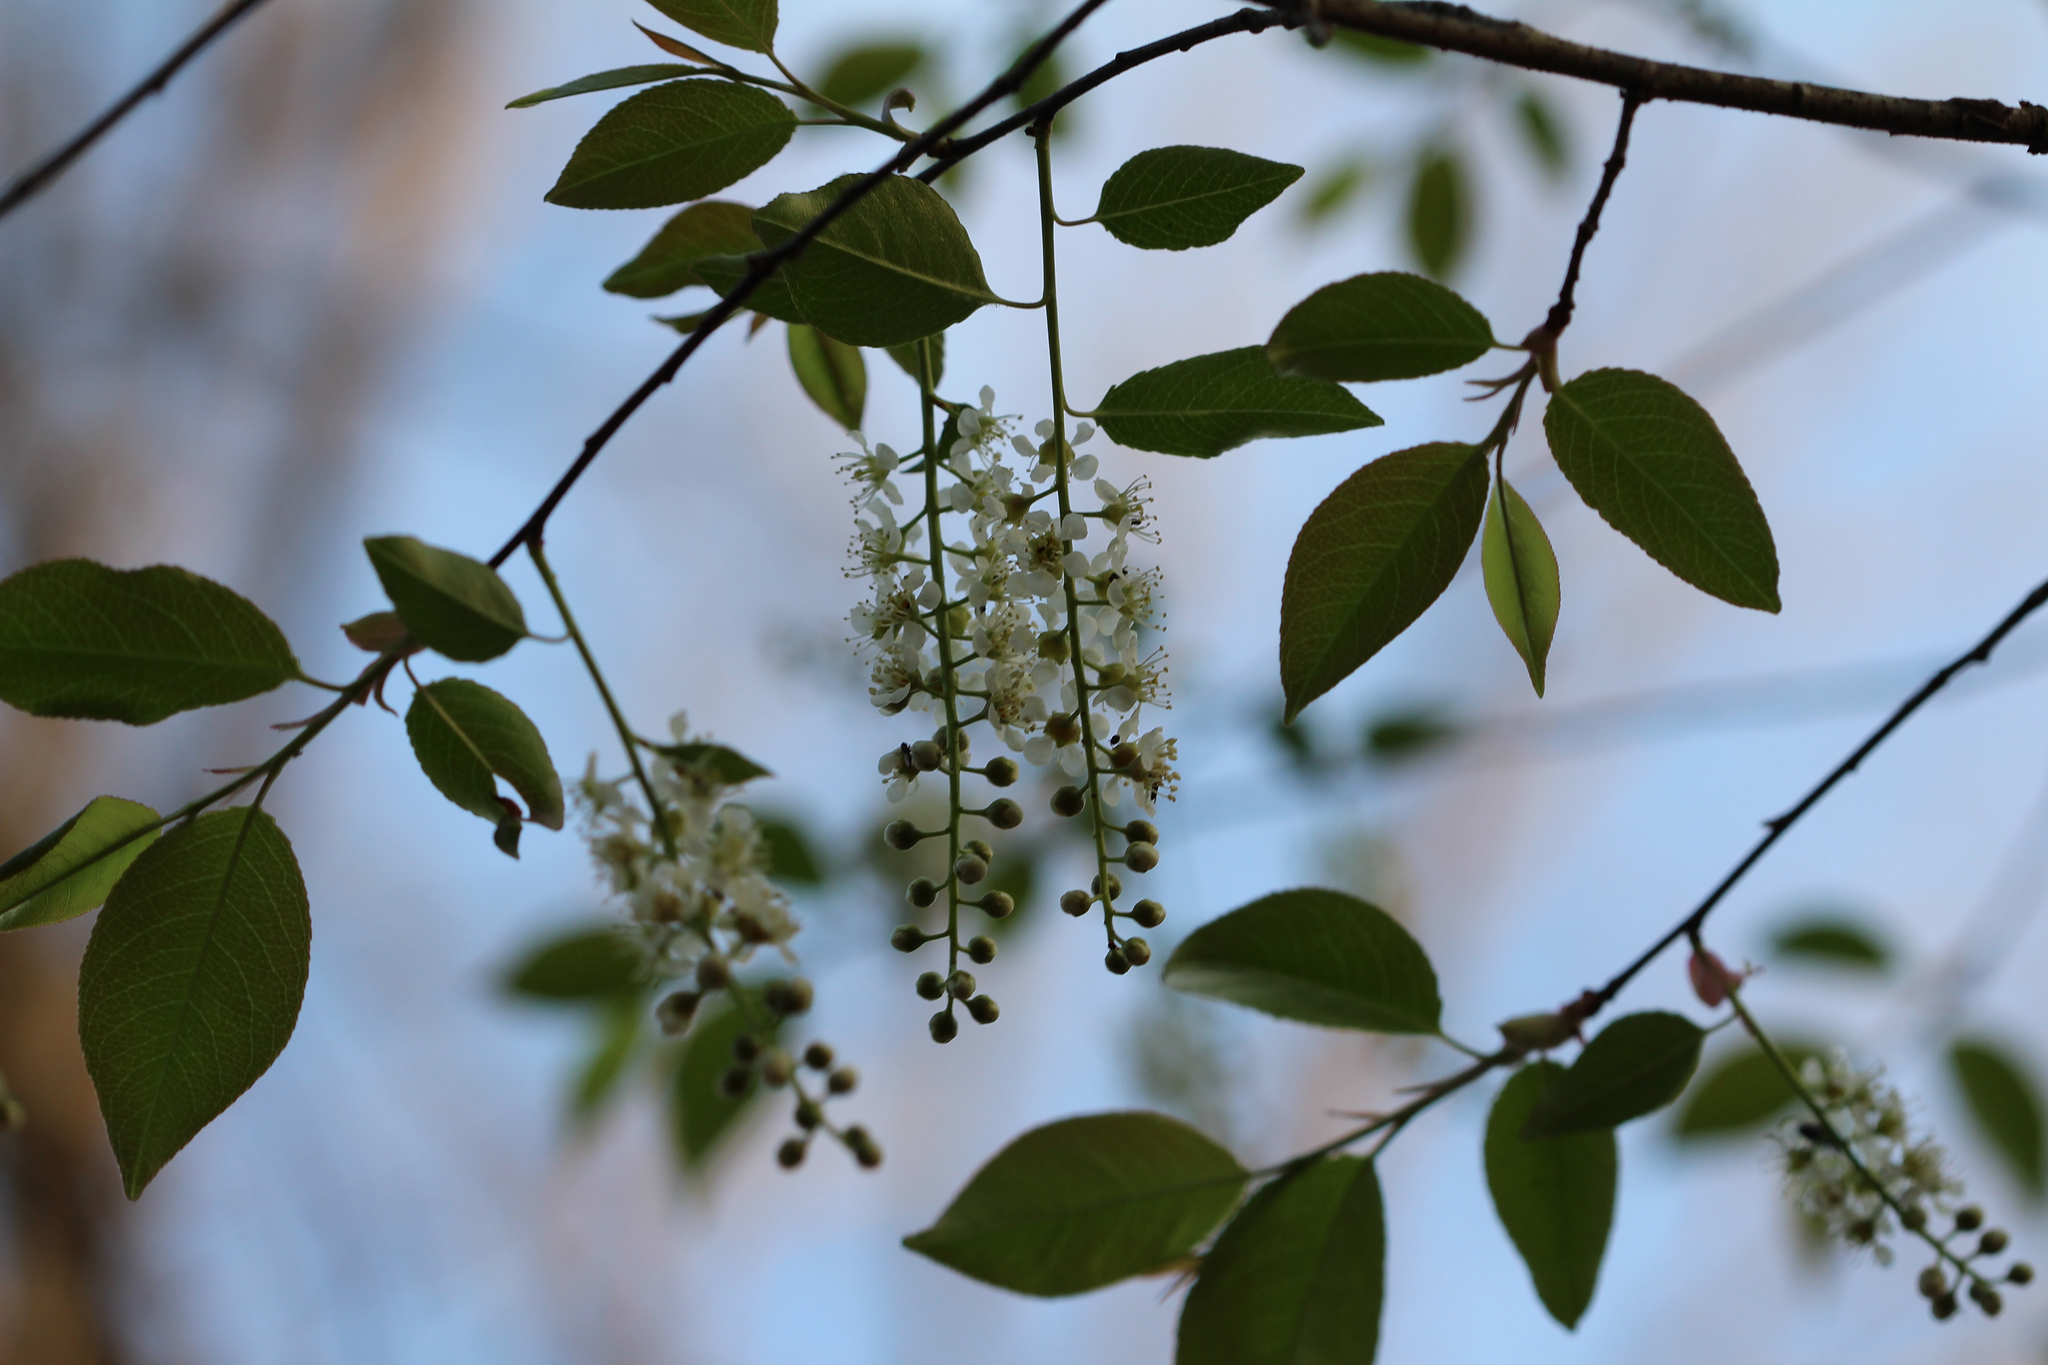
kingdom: Plantae
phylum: Tracheophyta
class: Magnoliopsida
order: Rosales
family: Rosaceae
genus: Prunus
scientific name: Prunus serotina
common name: Black cherry
